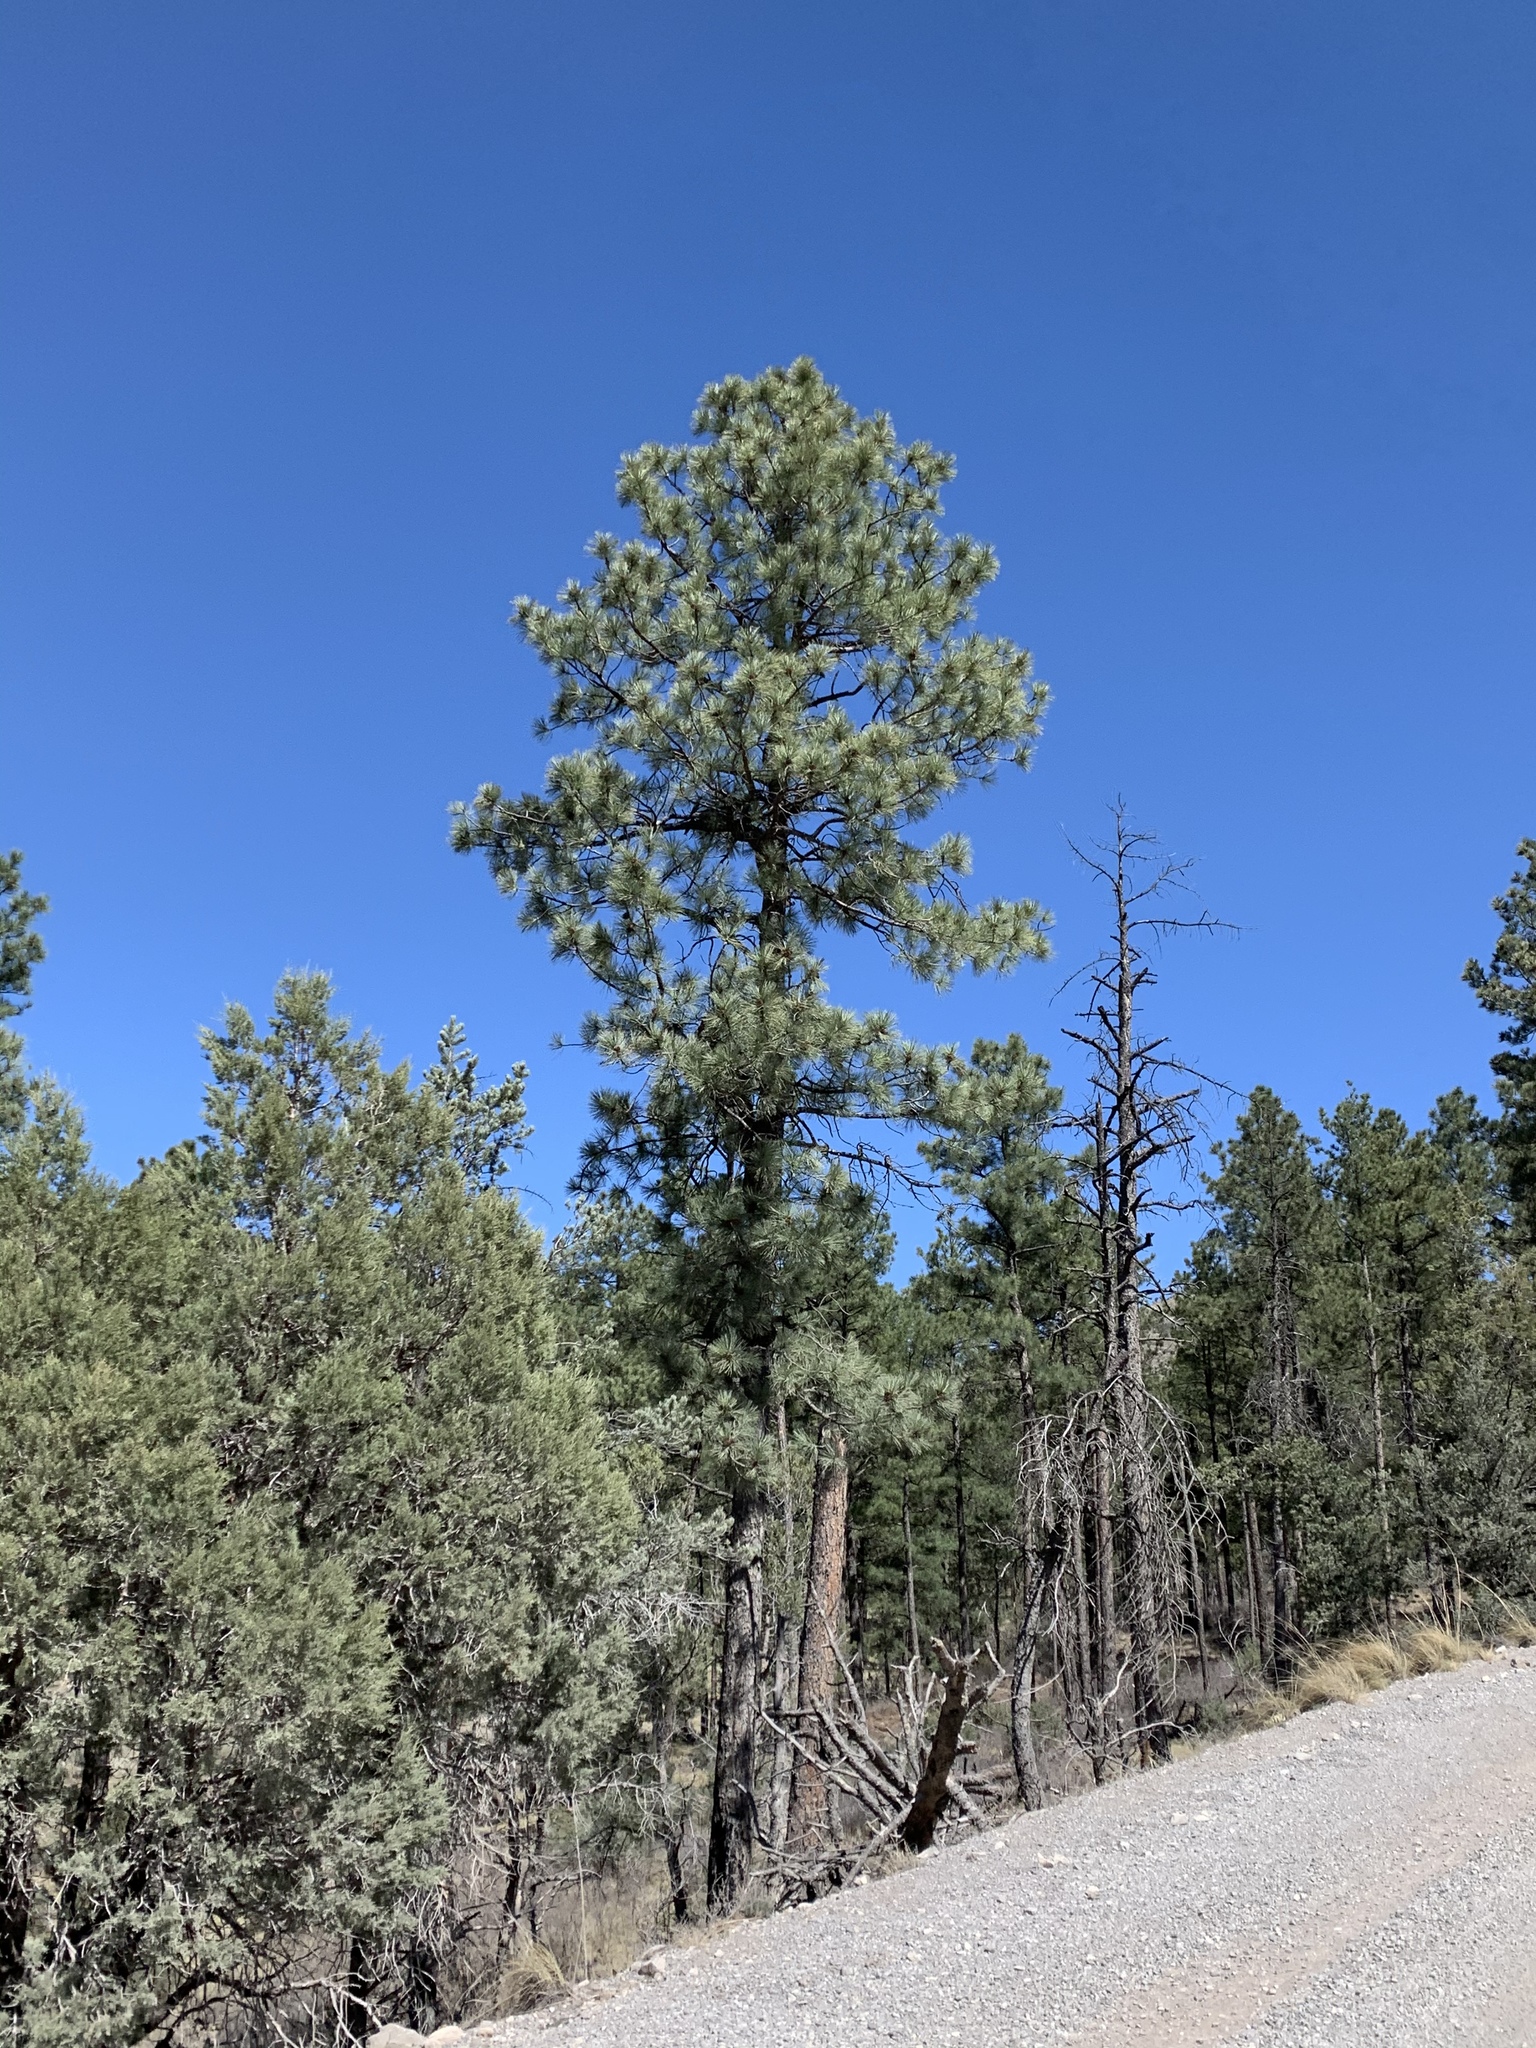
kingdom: Plantae
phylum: Tracheophyta
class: Pinopsida
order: Pinales
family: Pinaceae
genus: Pinus
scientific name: Pinus ponderosa
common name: Western yellow-pine
